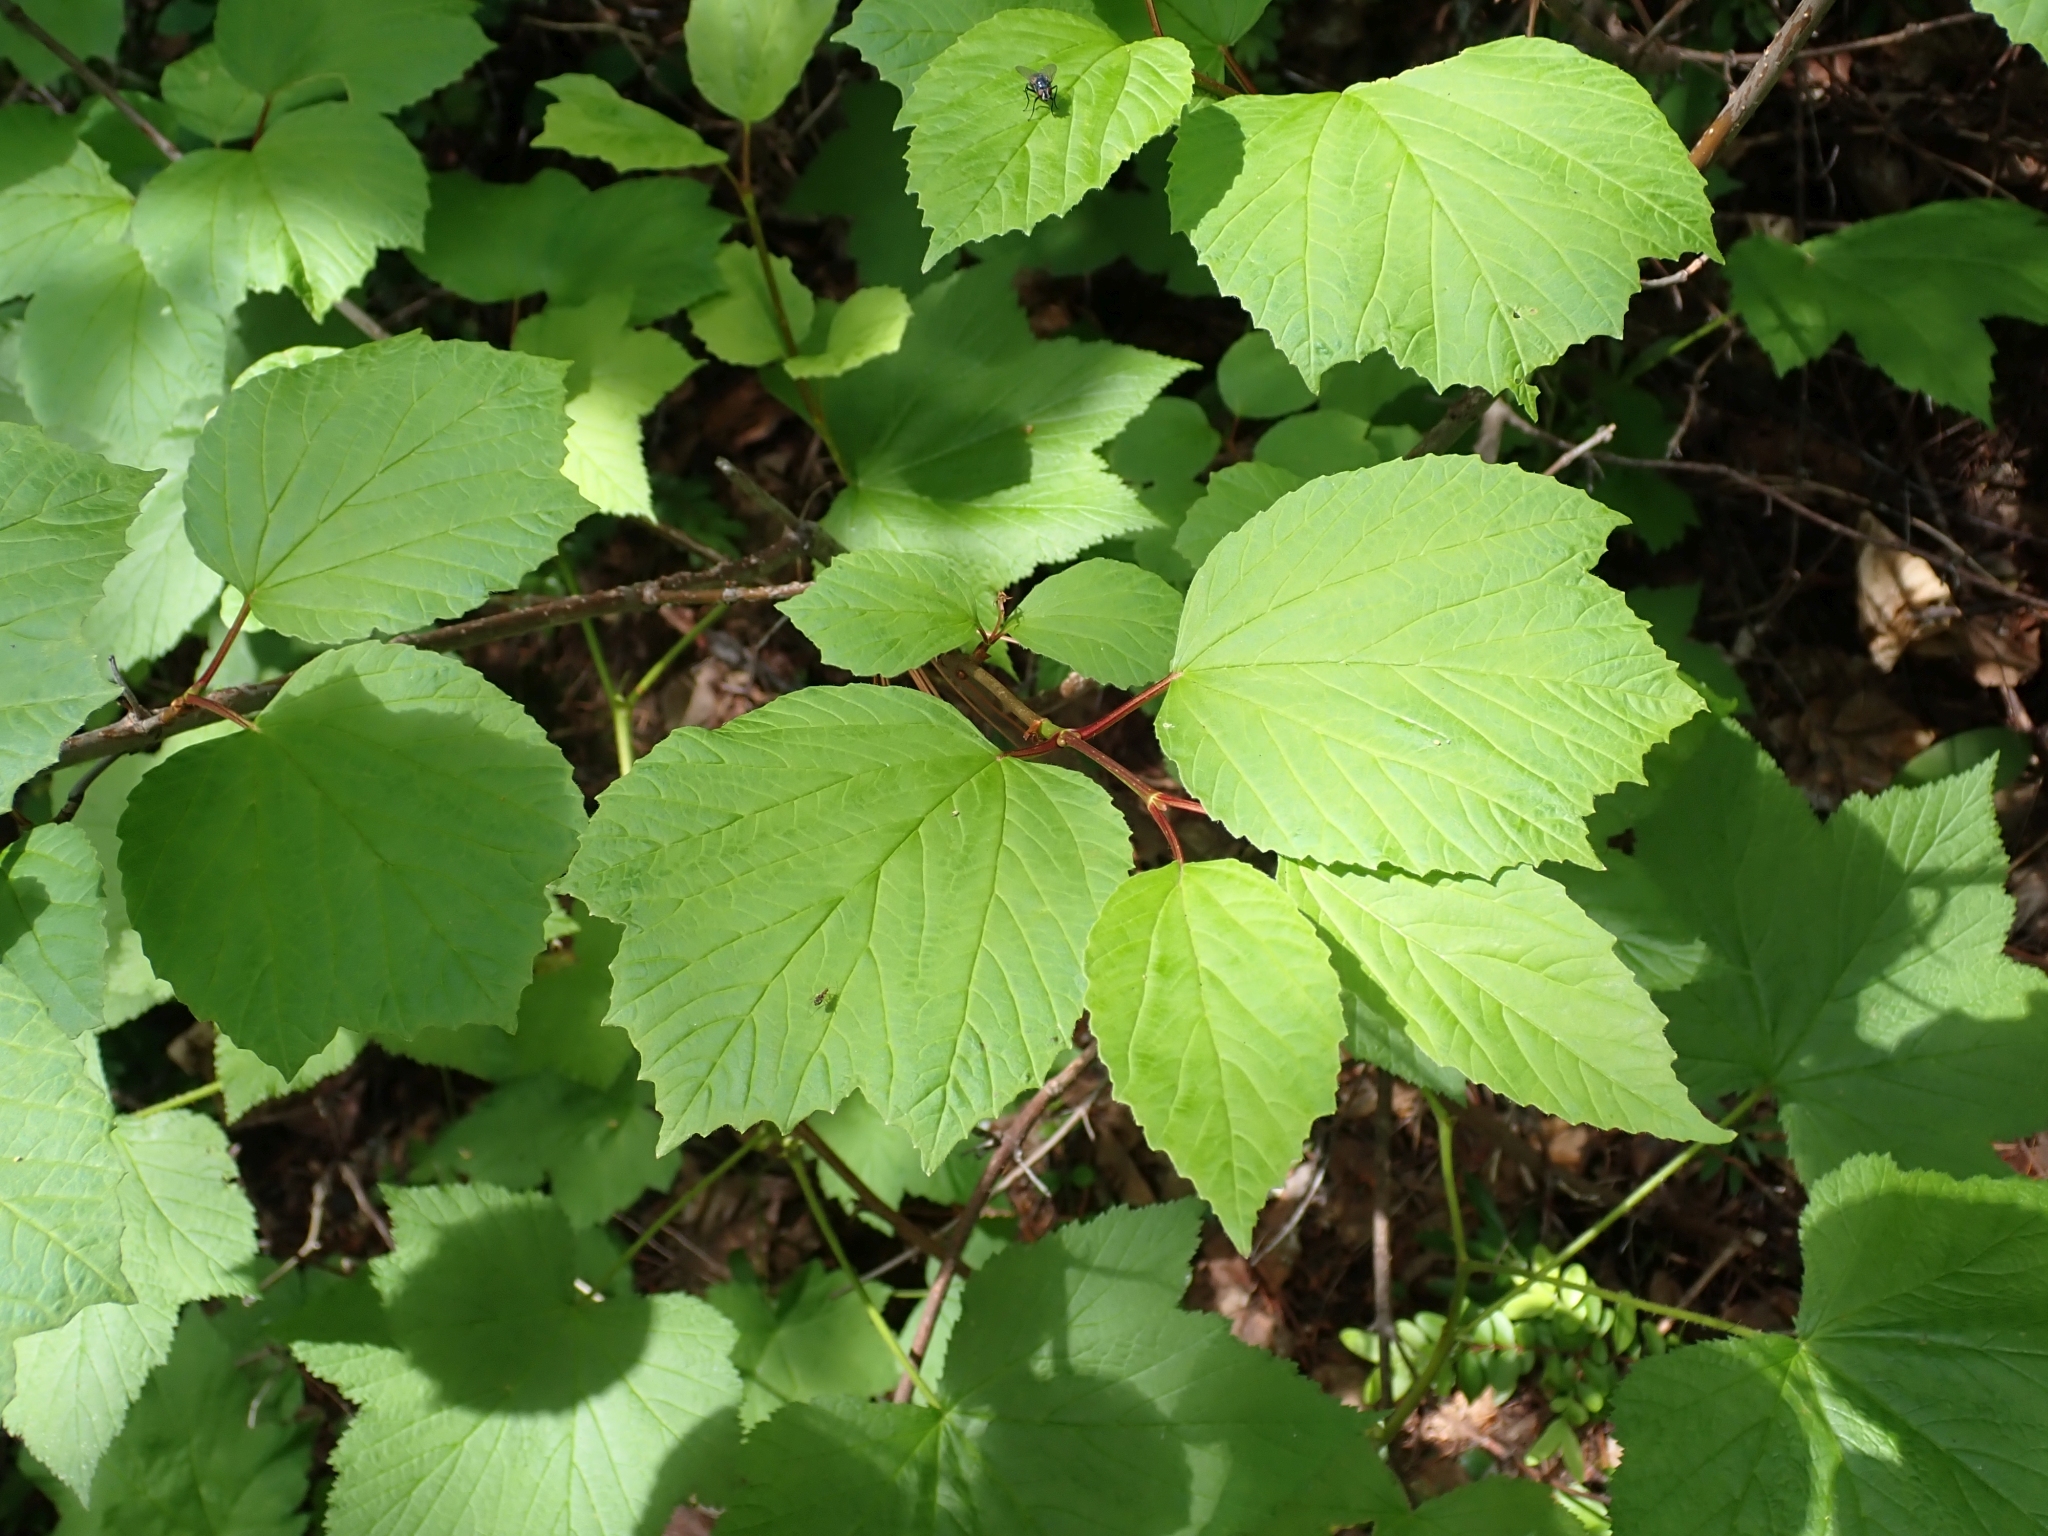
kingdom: Plantae
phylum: Tracheophyta
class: Magnoliopsida
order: Dipsacales
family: Viburnaceae
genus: Viburnum
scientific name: Viburnum edule
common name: Mooseberry
